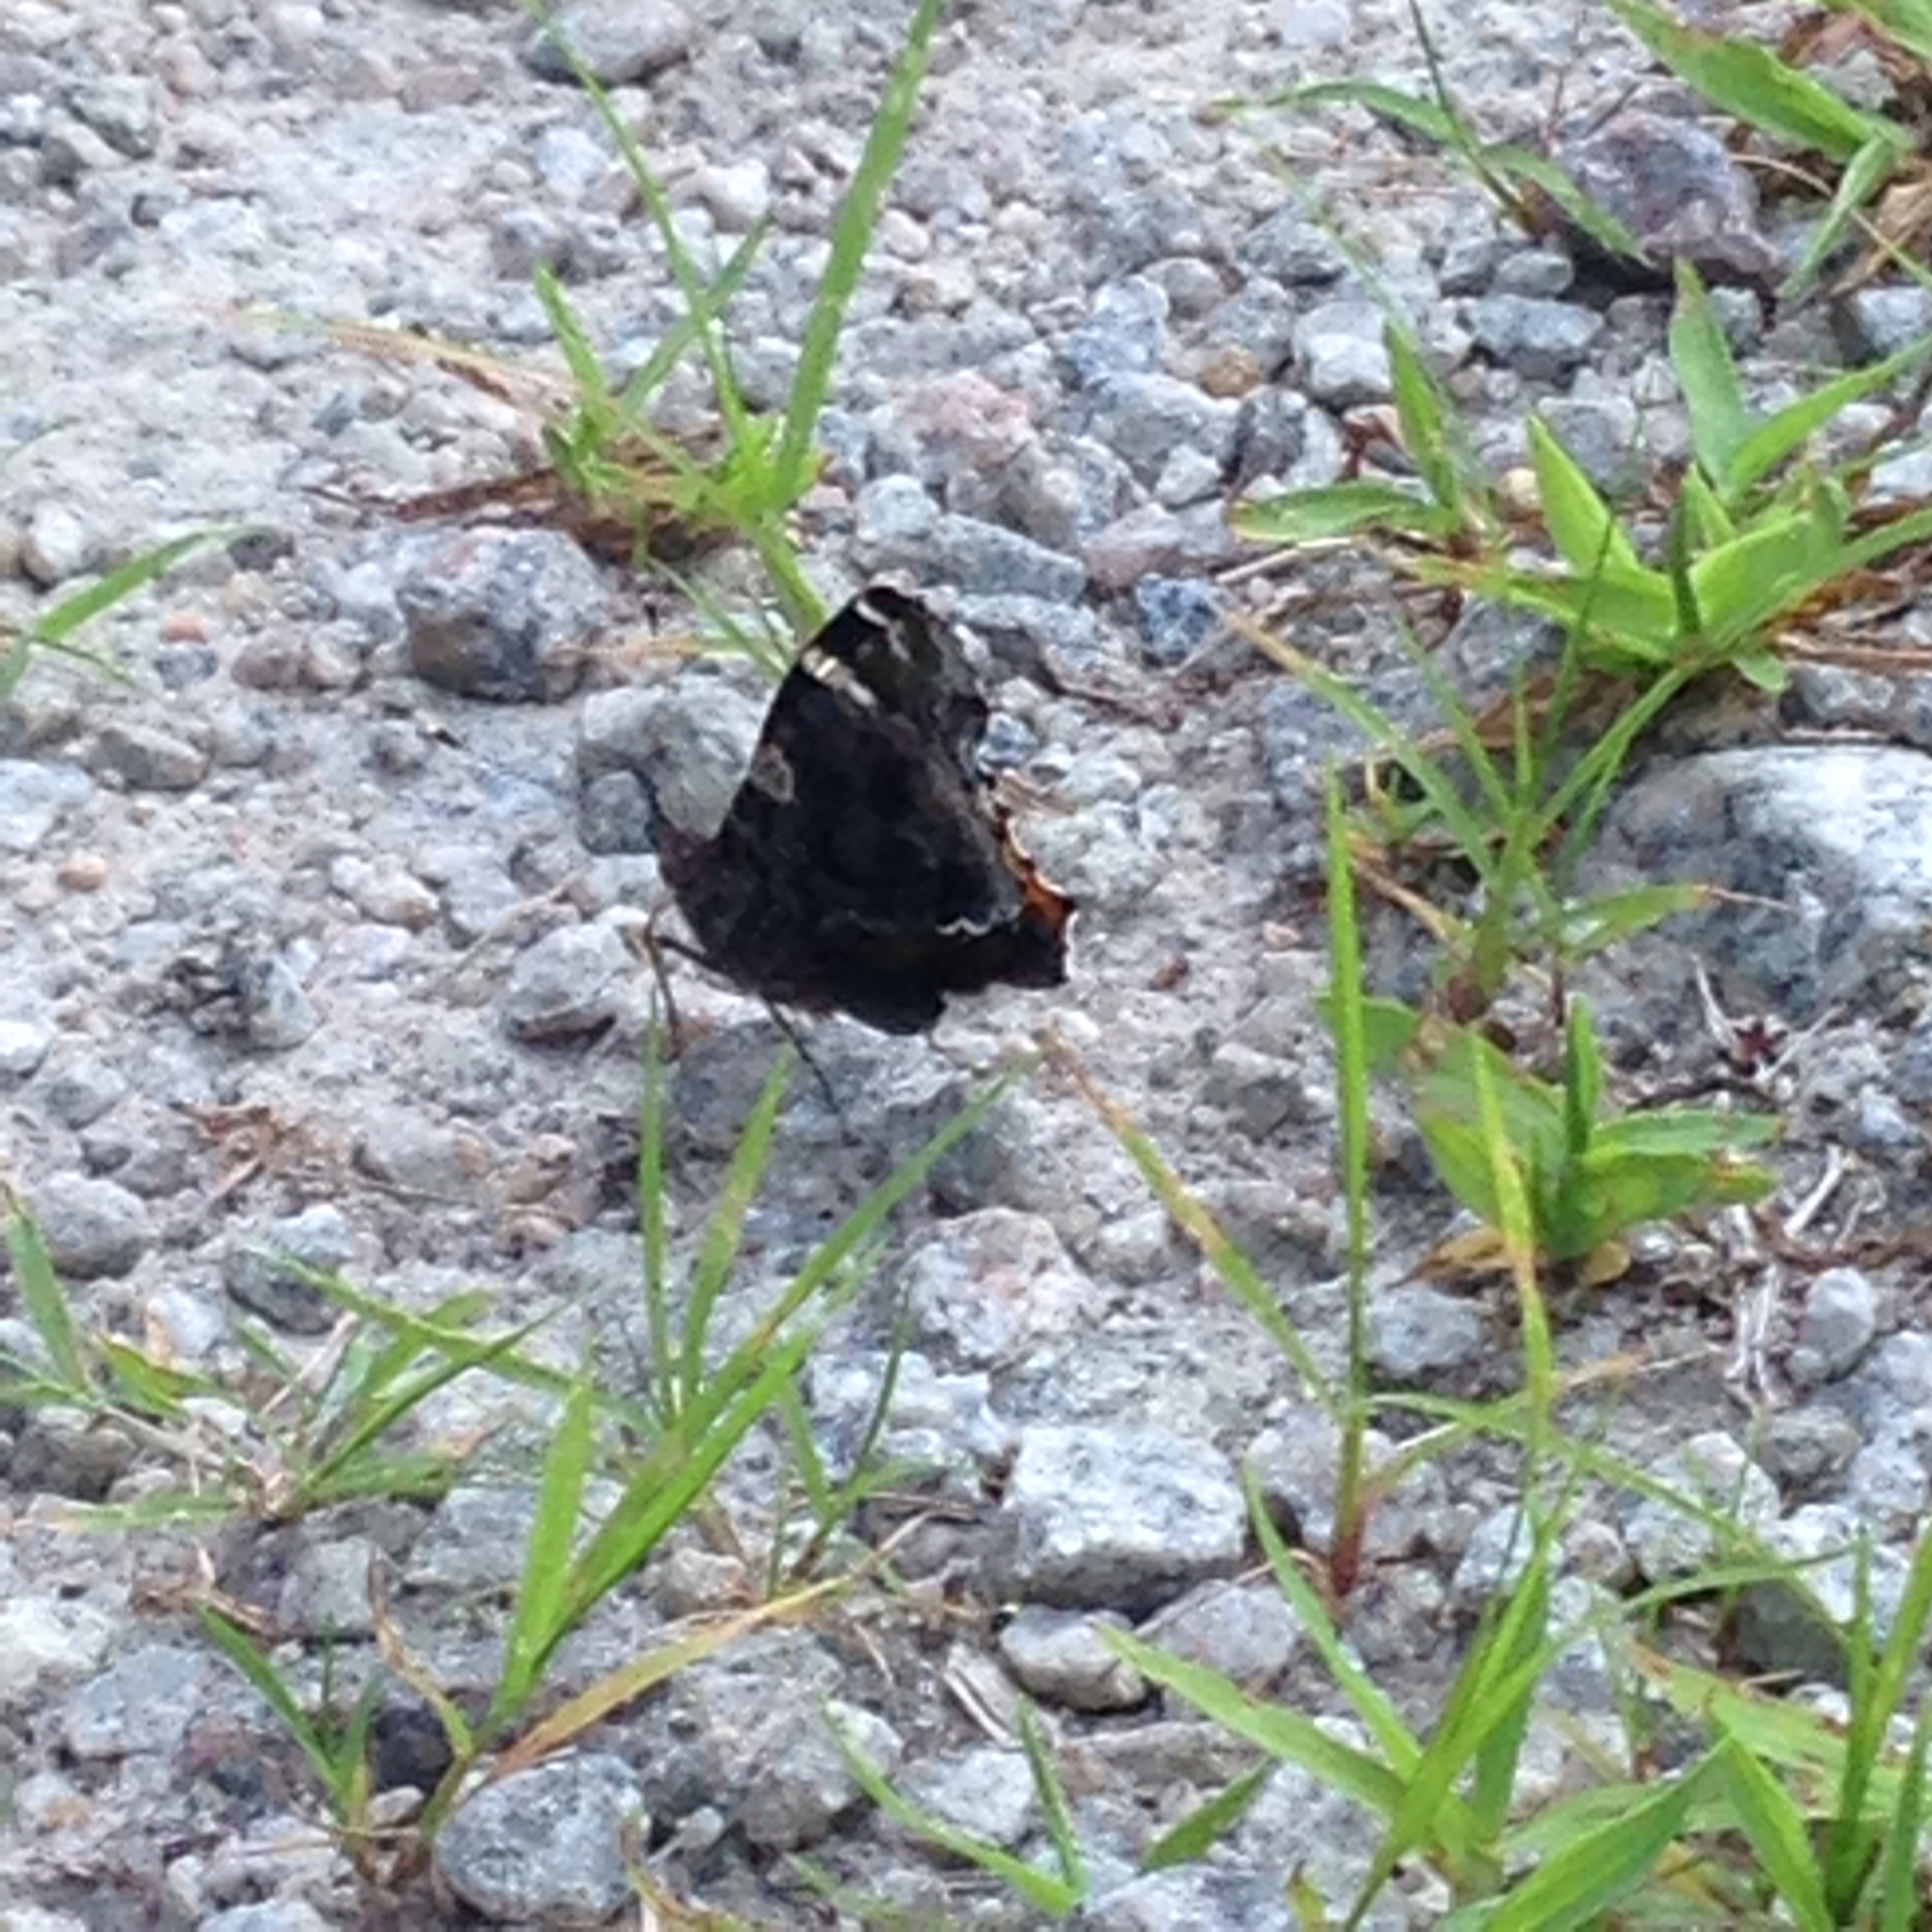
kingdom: Animalia
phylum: Arthropoda
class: Insecta
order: Lepidoptera
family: Nymphalidae
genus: Vanessa
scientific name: Vanessa atalanta
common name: Red admiral
